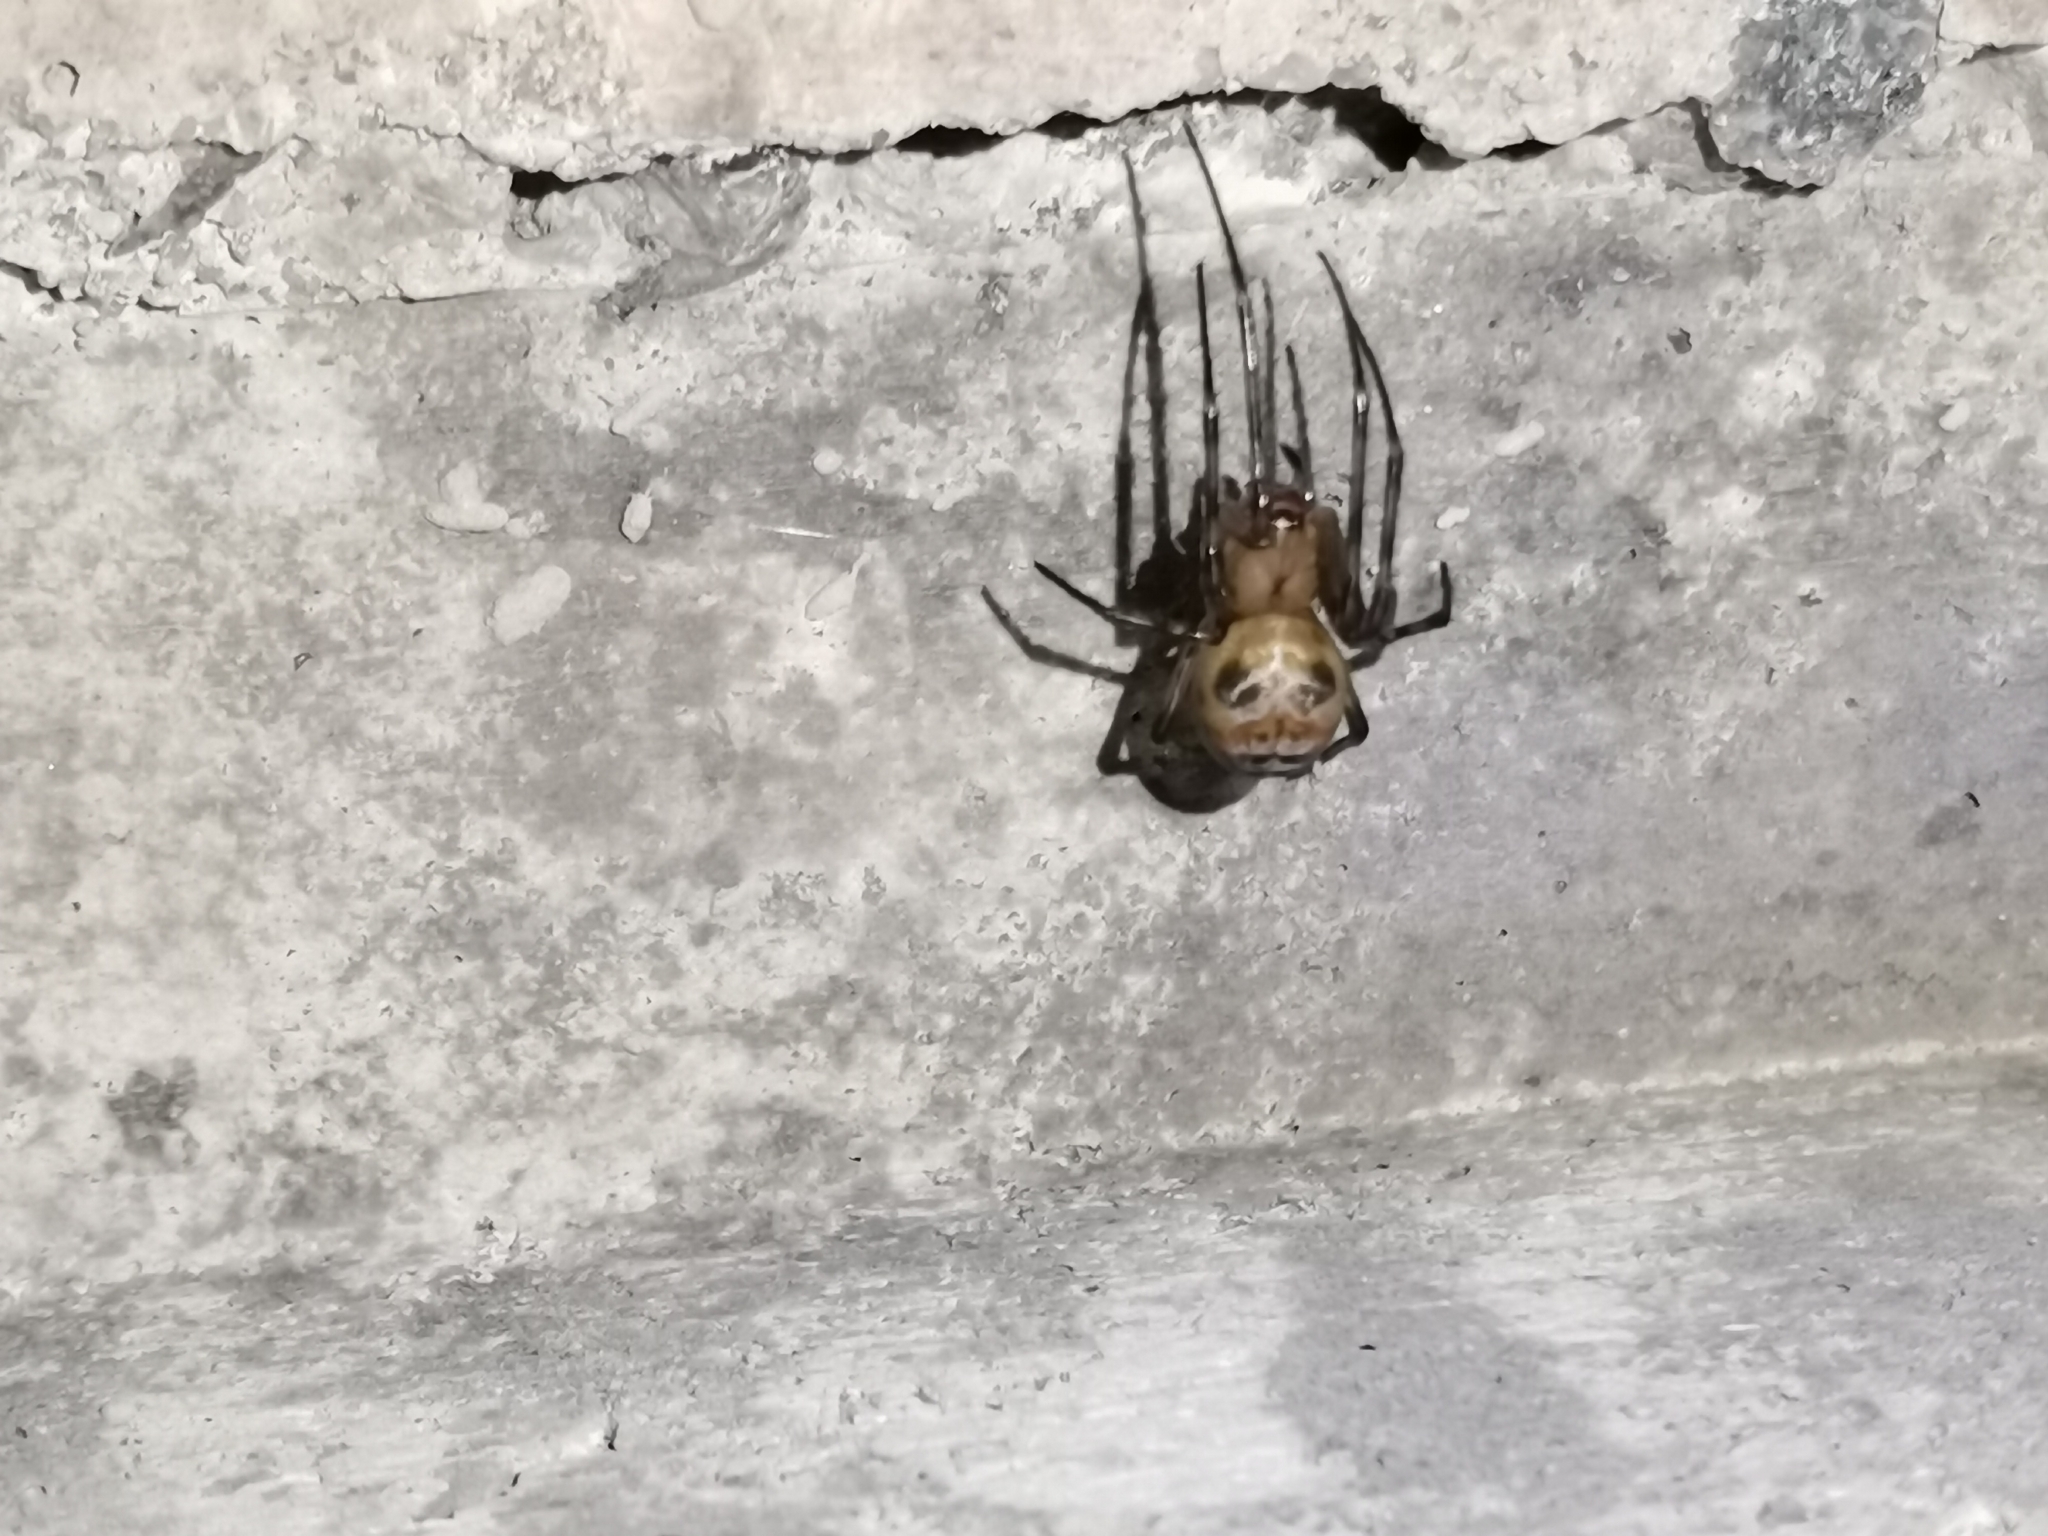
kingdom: Animalia
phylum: Arthropoda
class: Arachnida
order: Araneae
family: Tetragnathidae
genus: Meta
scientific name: Meta menardi
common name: Cave spider
